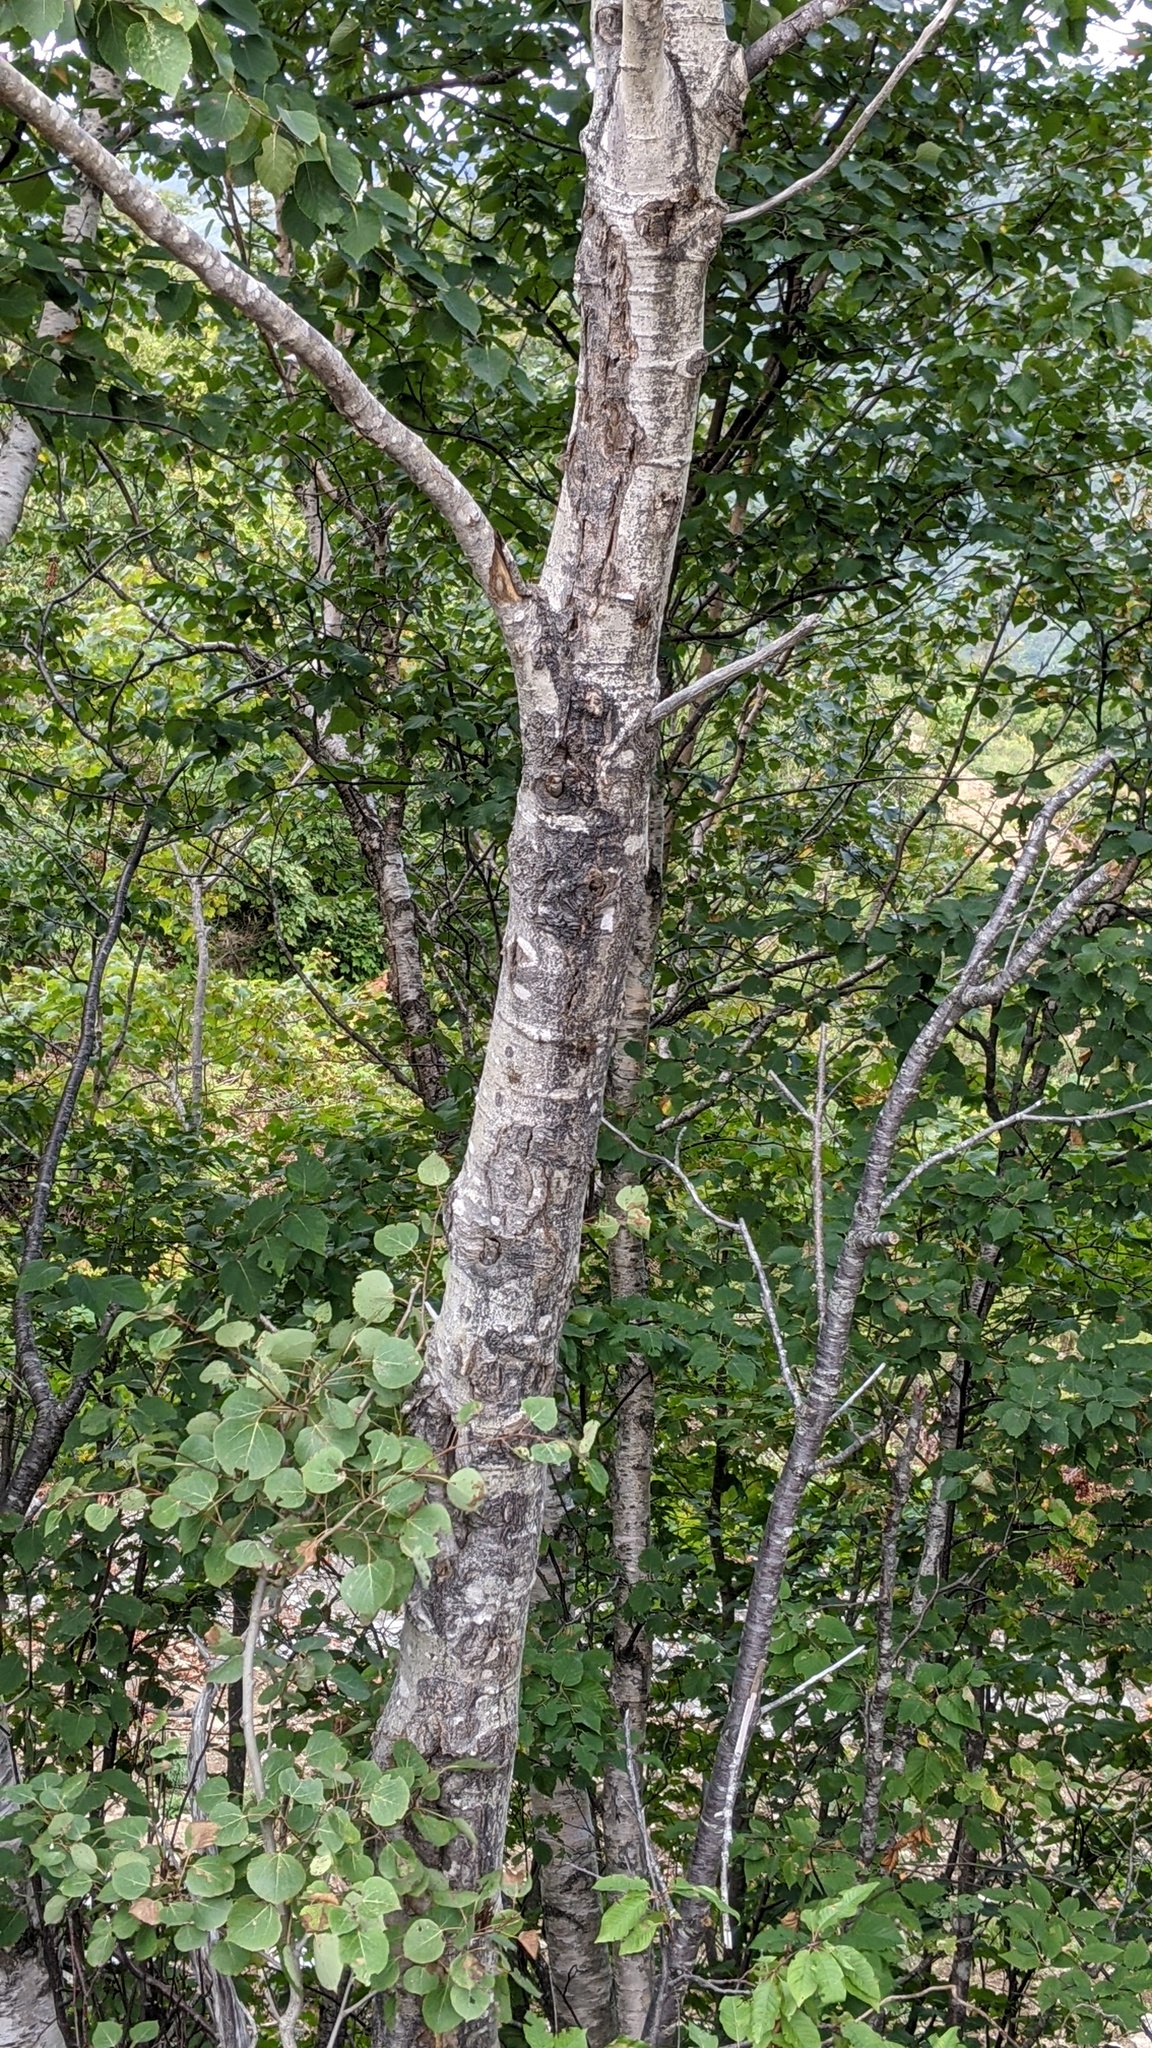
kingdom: Plantae
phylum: Tracheophyta
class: Magnoliopsida
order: Malpighiales
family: Salicaceae
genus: Populus
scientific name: Populus tremuloides
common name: Quaking aspen
